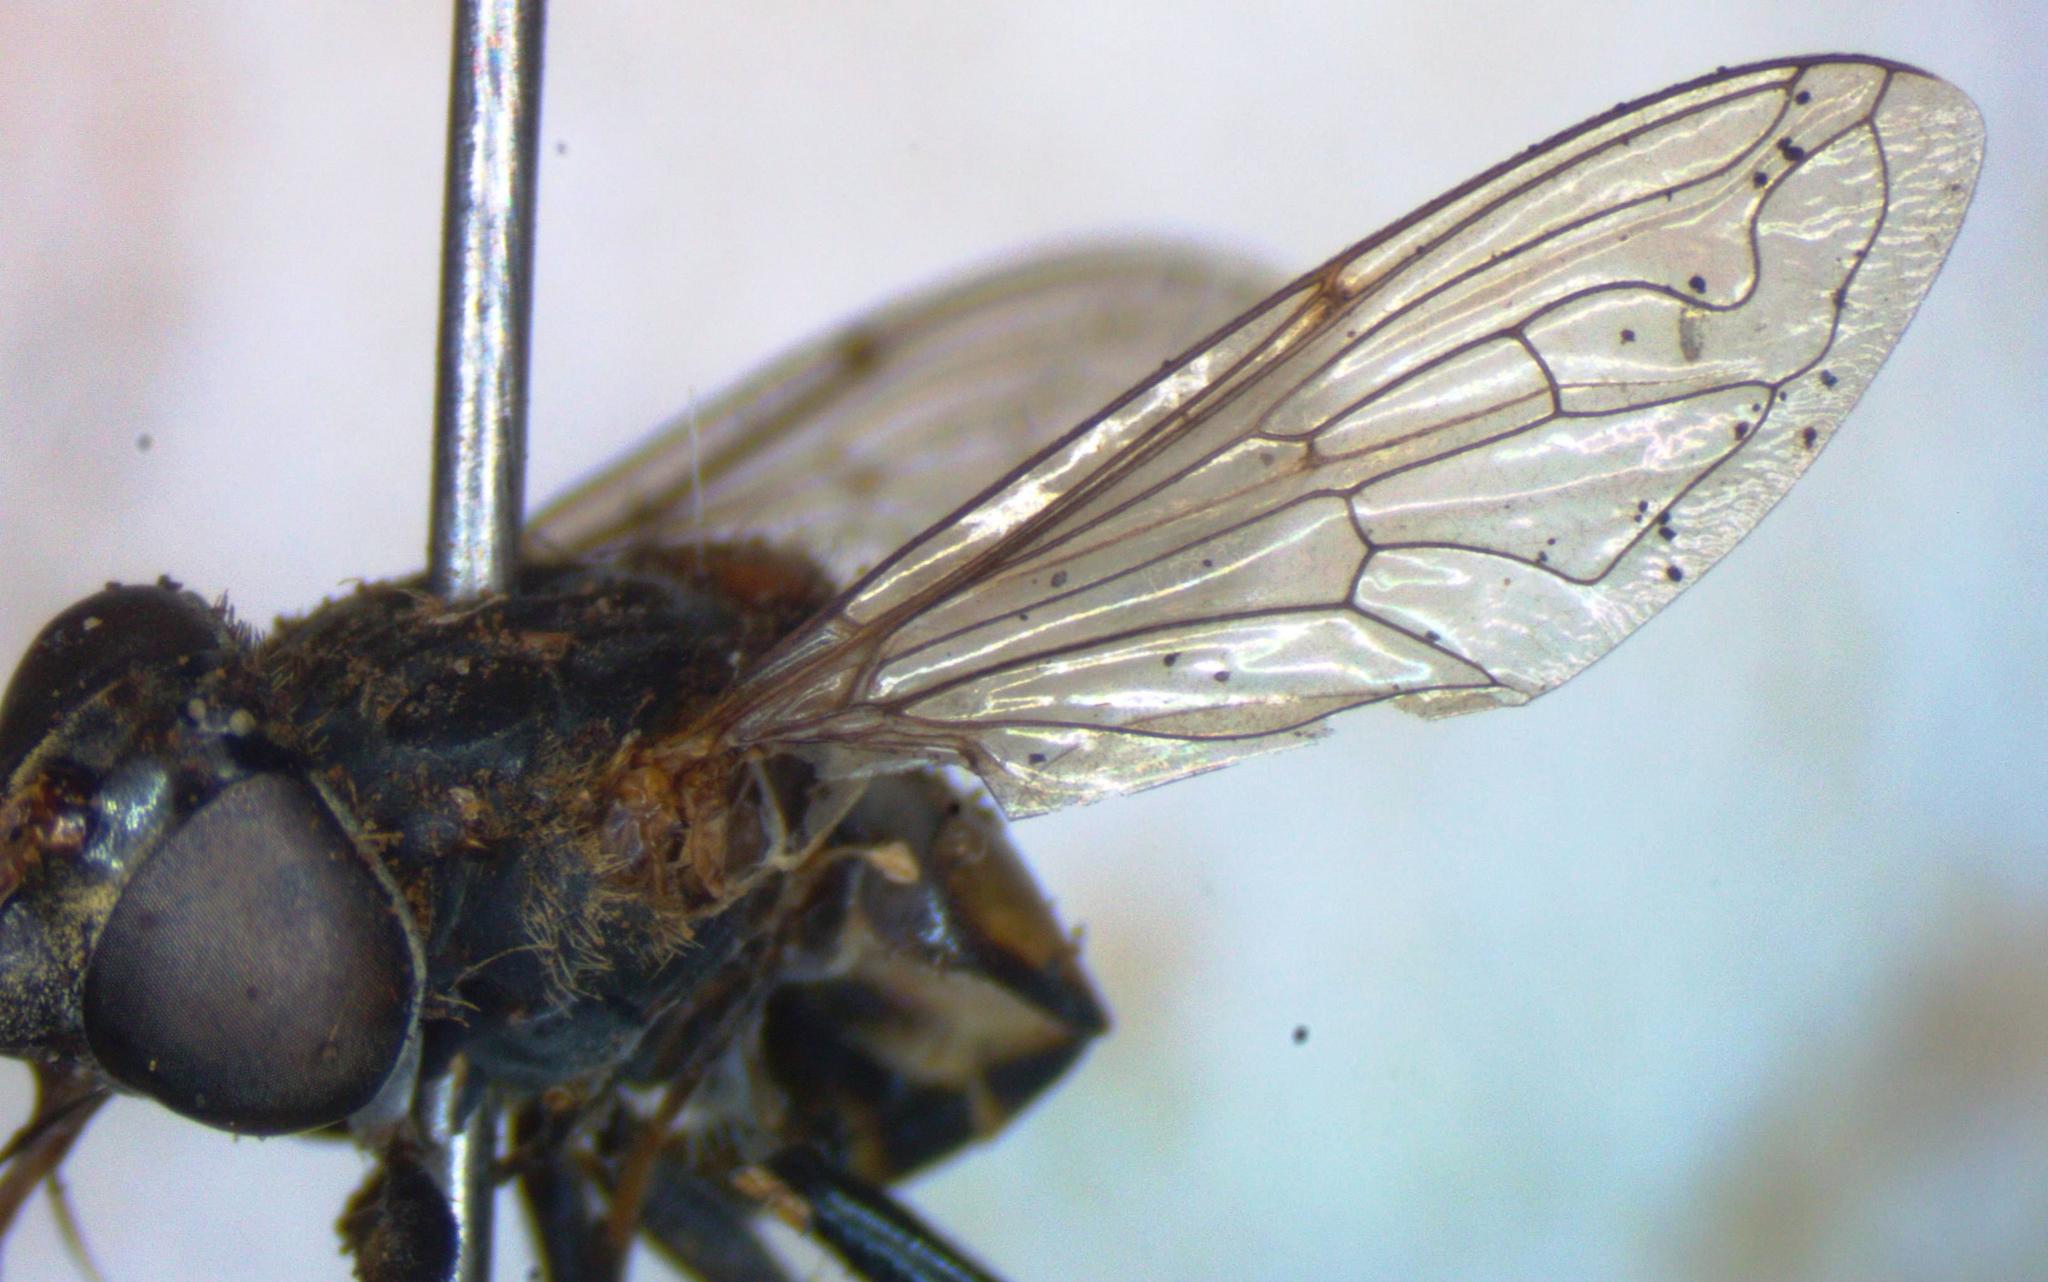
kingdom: Animalia
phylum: Arthropoda
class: Insecta
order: Diptera
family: Syrphidae
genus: Lycastrirhyncha
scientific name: Lycastrirhyncha nitens
